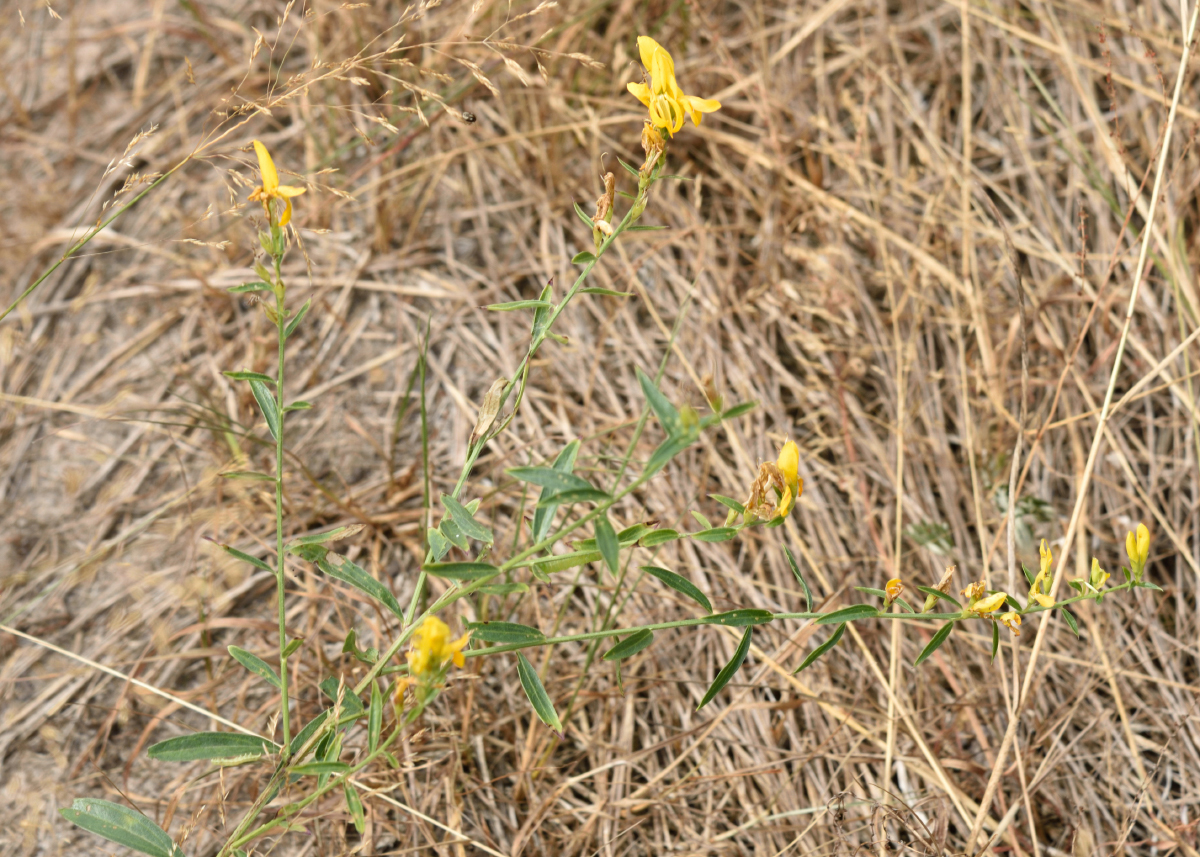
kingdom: Plantae
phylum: Tracheophyta
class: Magnoliopsida
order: Fabales
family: Fabaceae
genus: Genista
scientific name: Genista tinctoria
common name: Dyer's greenweed
